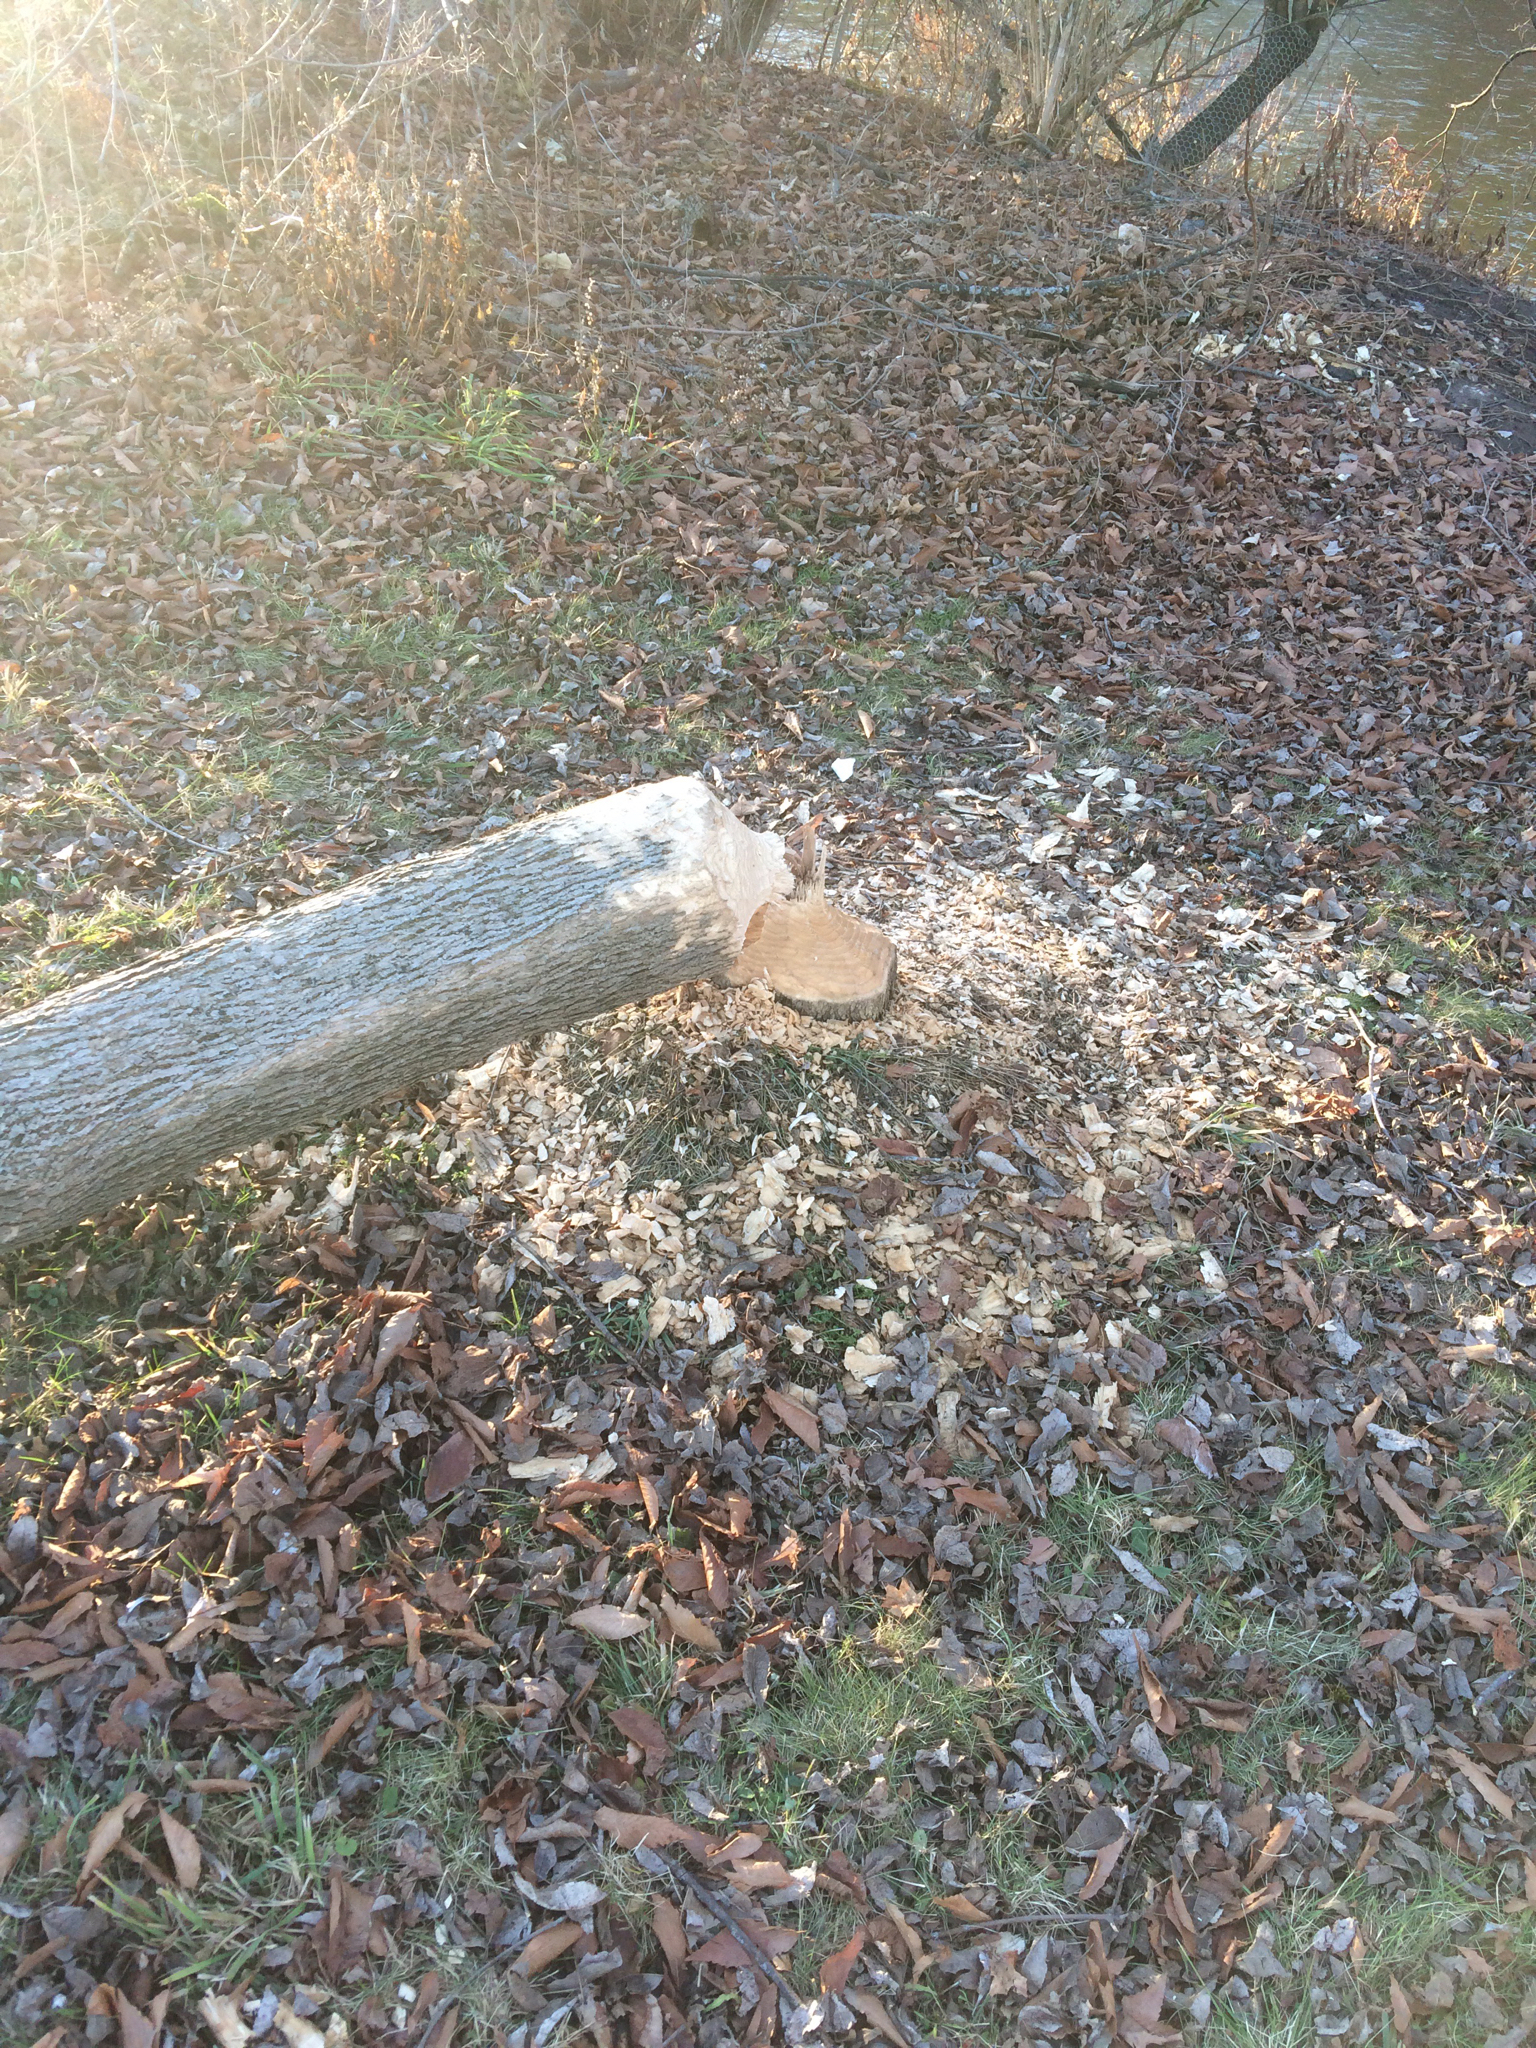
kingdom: Animalia
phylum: Chordata
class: Mammalia
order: Rodentia
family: Castoridae
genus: Castor
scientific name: Castor canadensis
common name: American beaver
